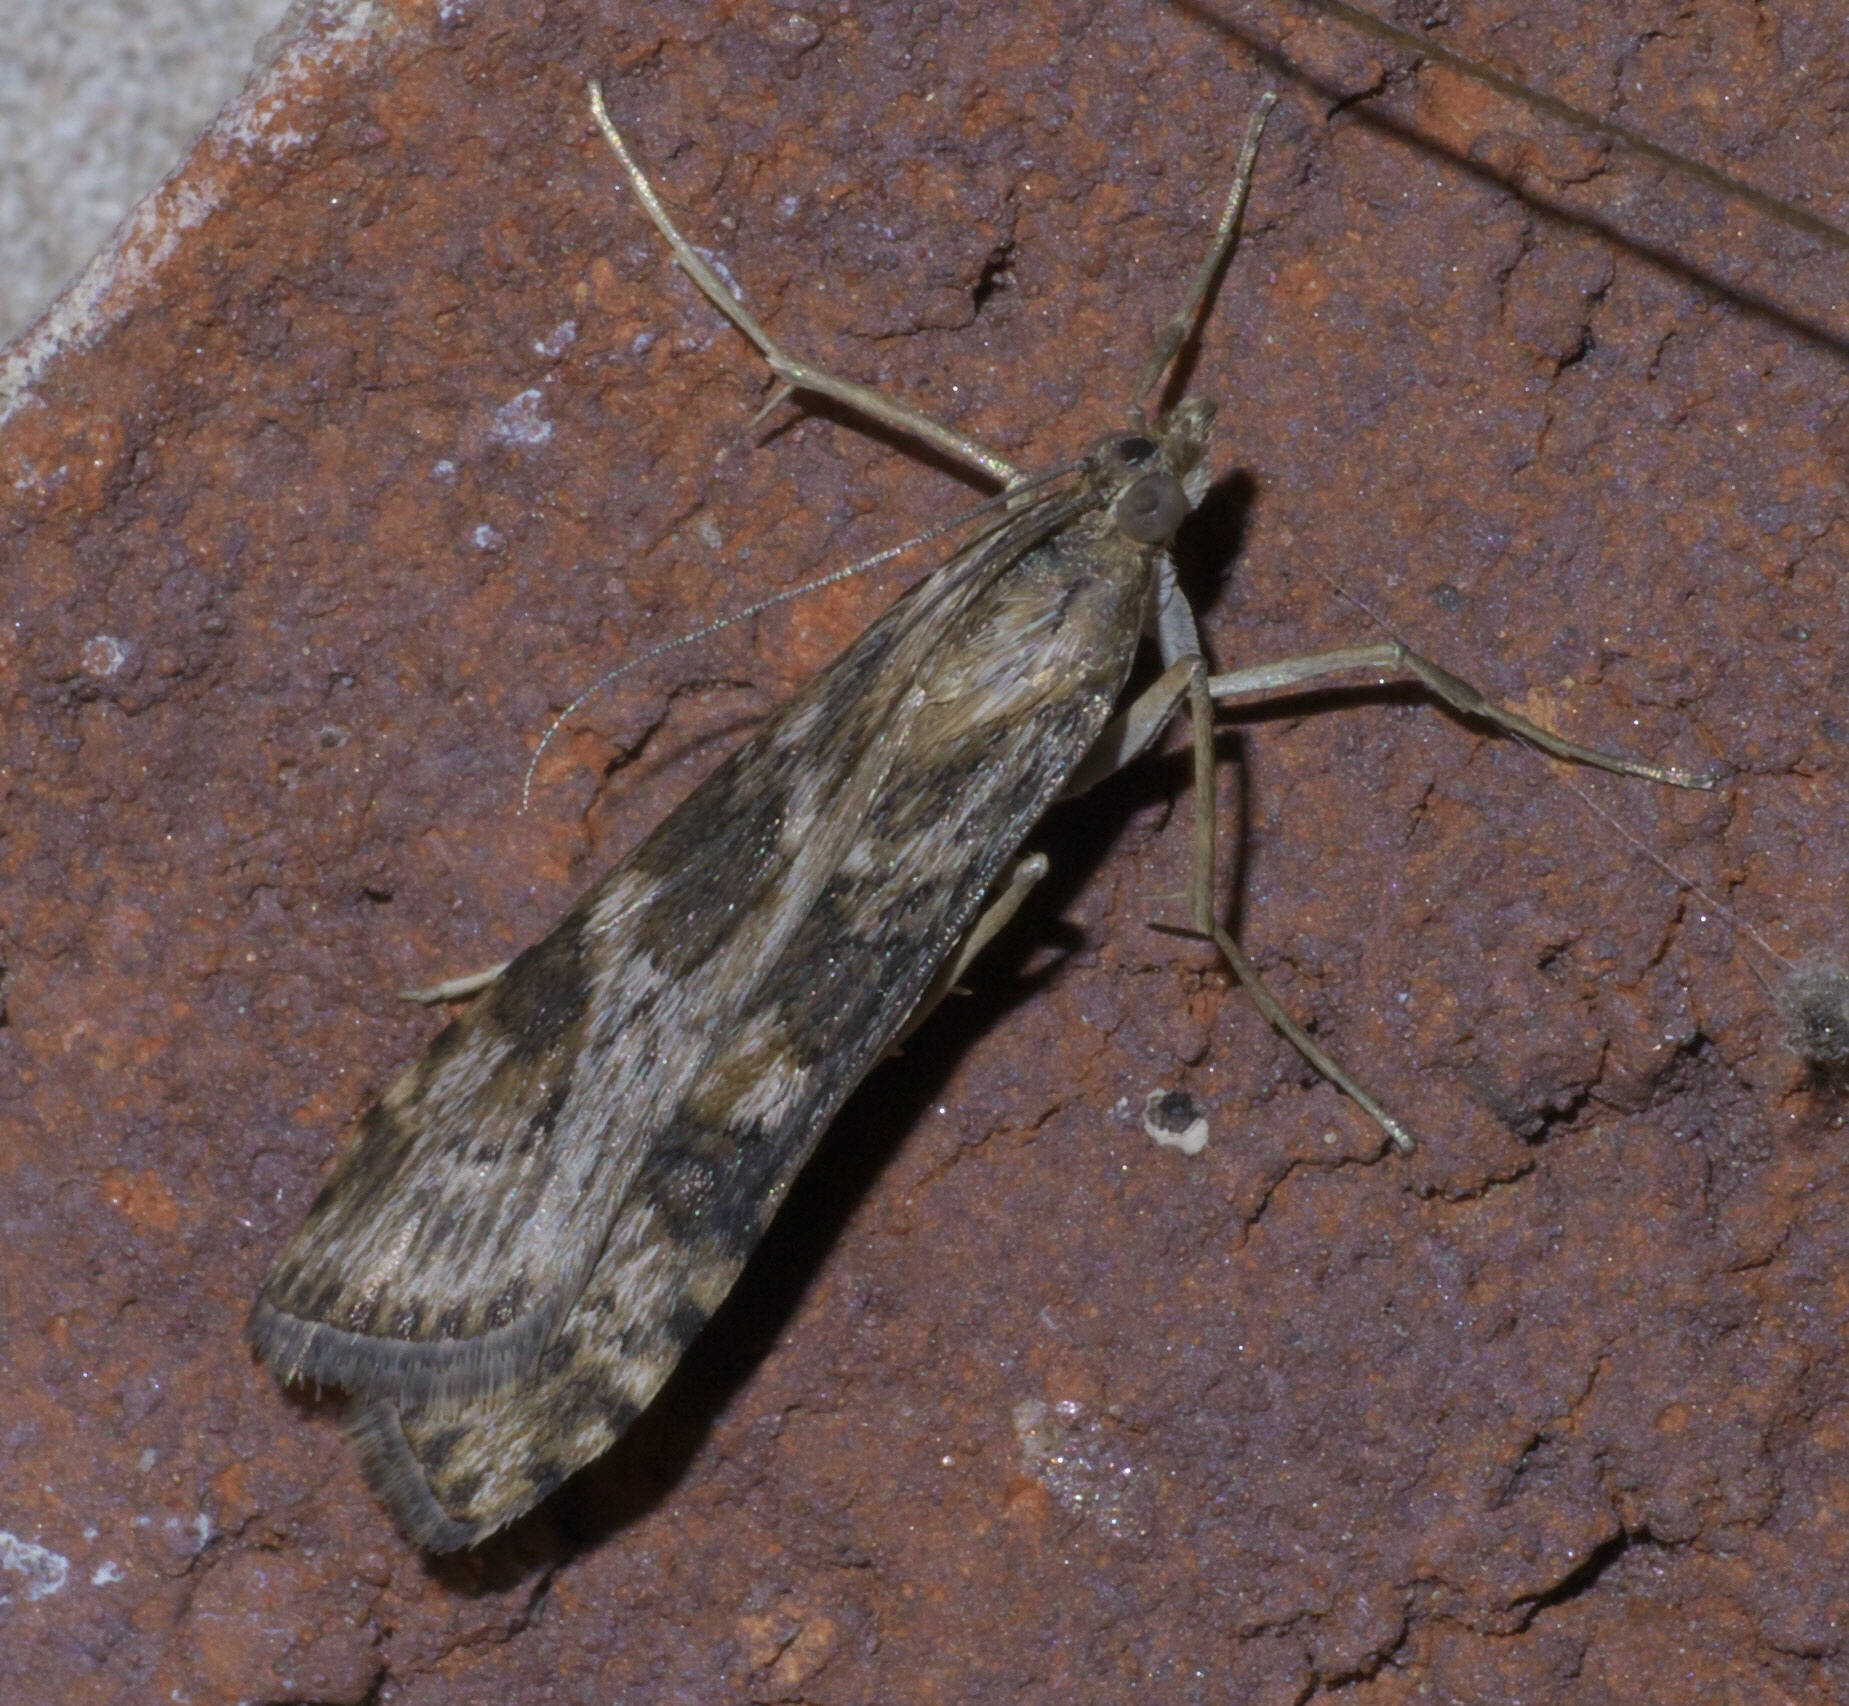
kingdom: Animalia
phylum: Arthropoda
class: Insecta
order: Lepidoptera
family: Crambidae
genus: Nomophila
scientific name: Nomophila nearctica
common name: American rush veneer
